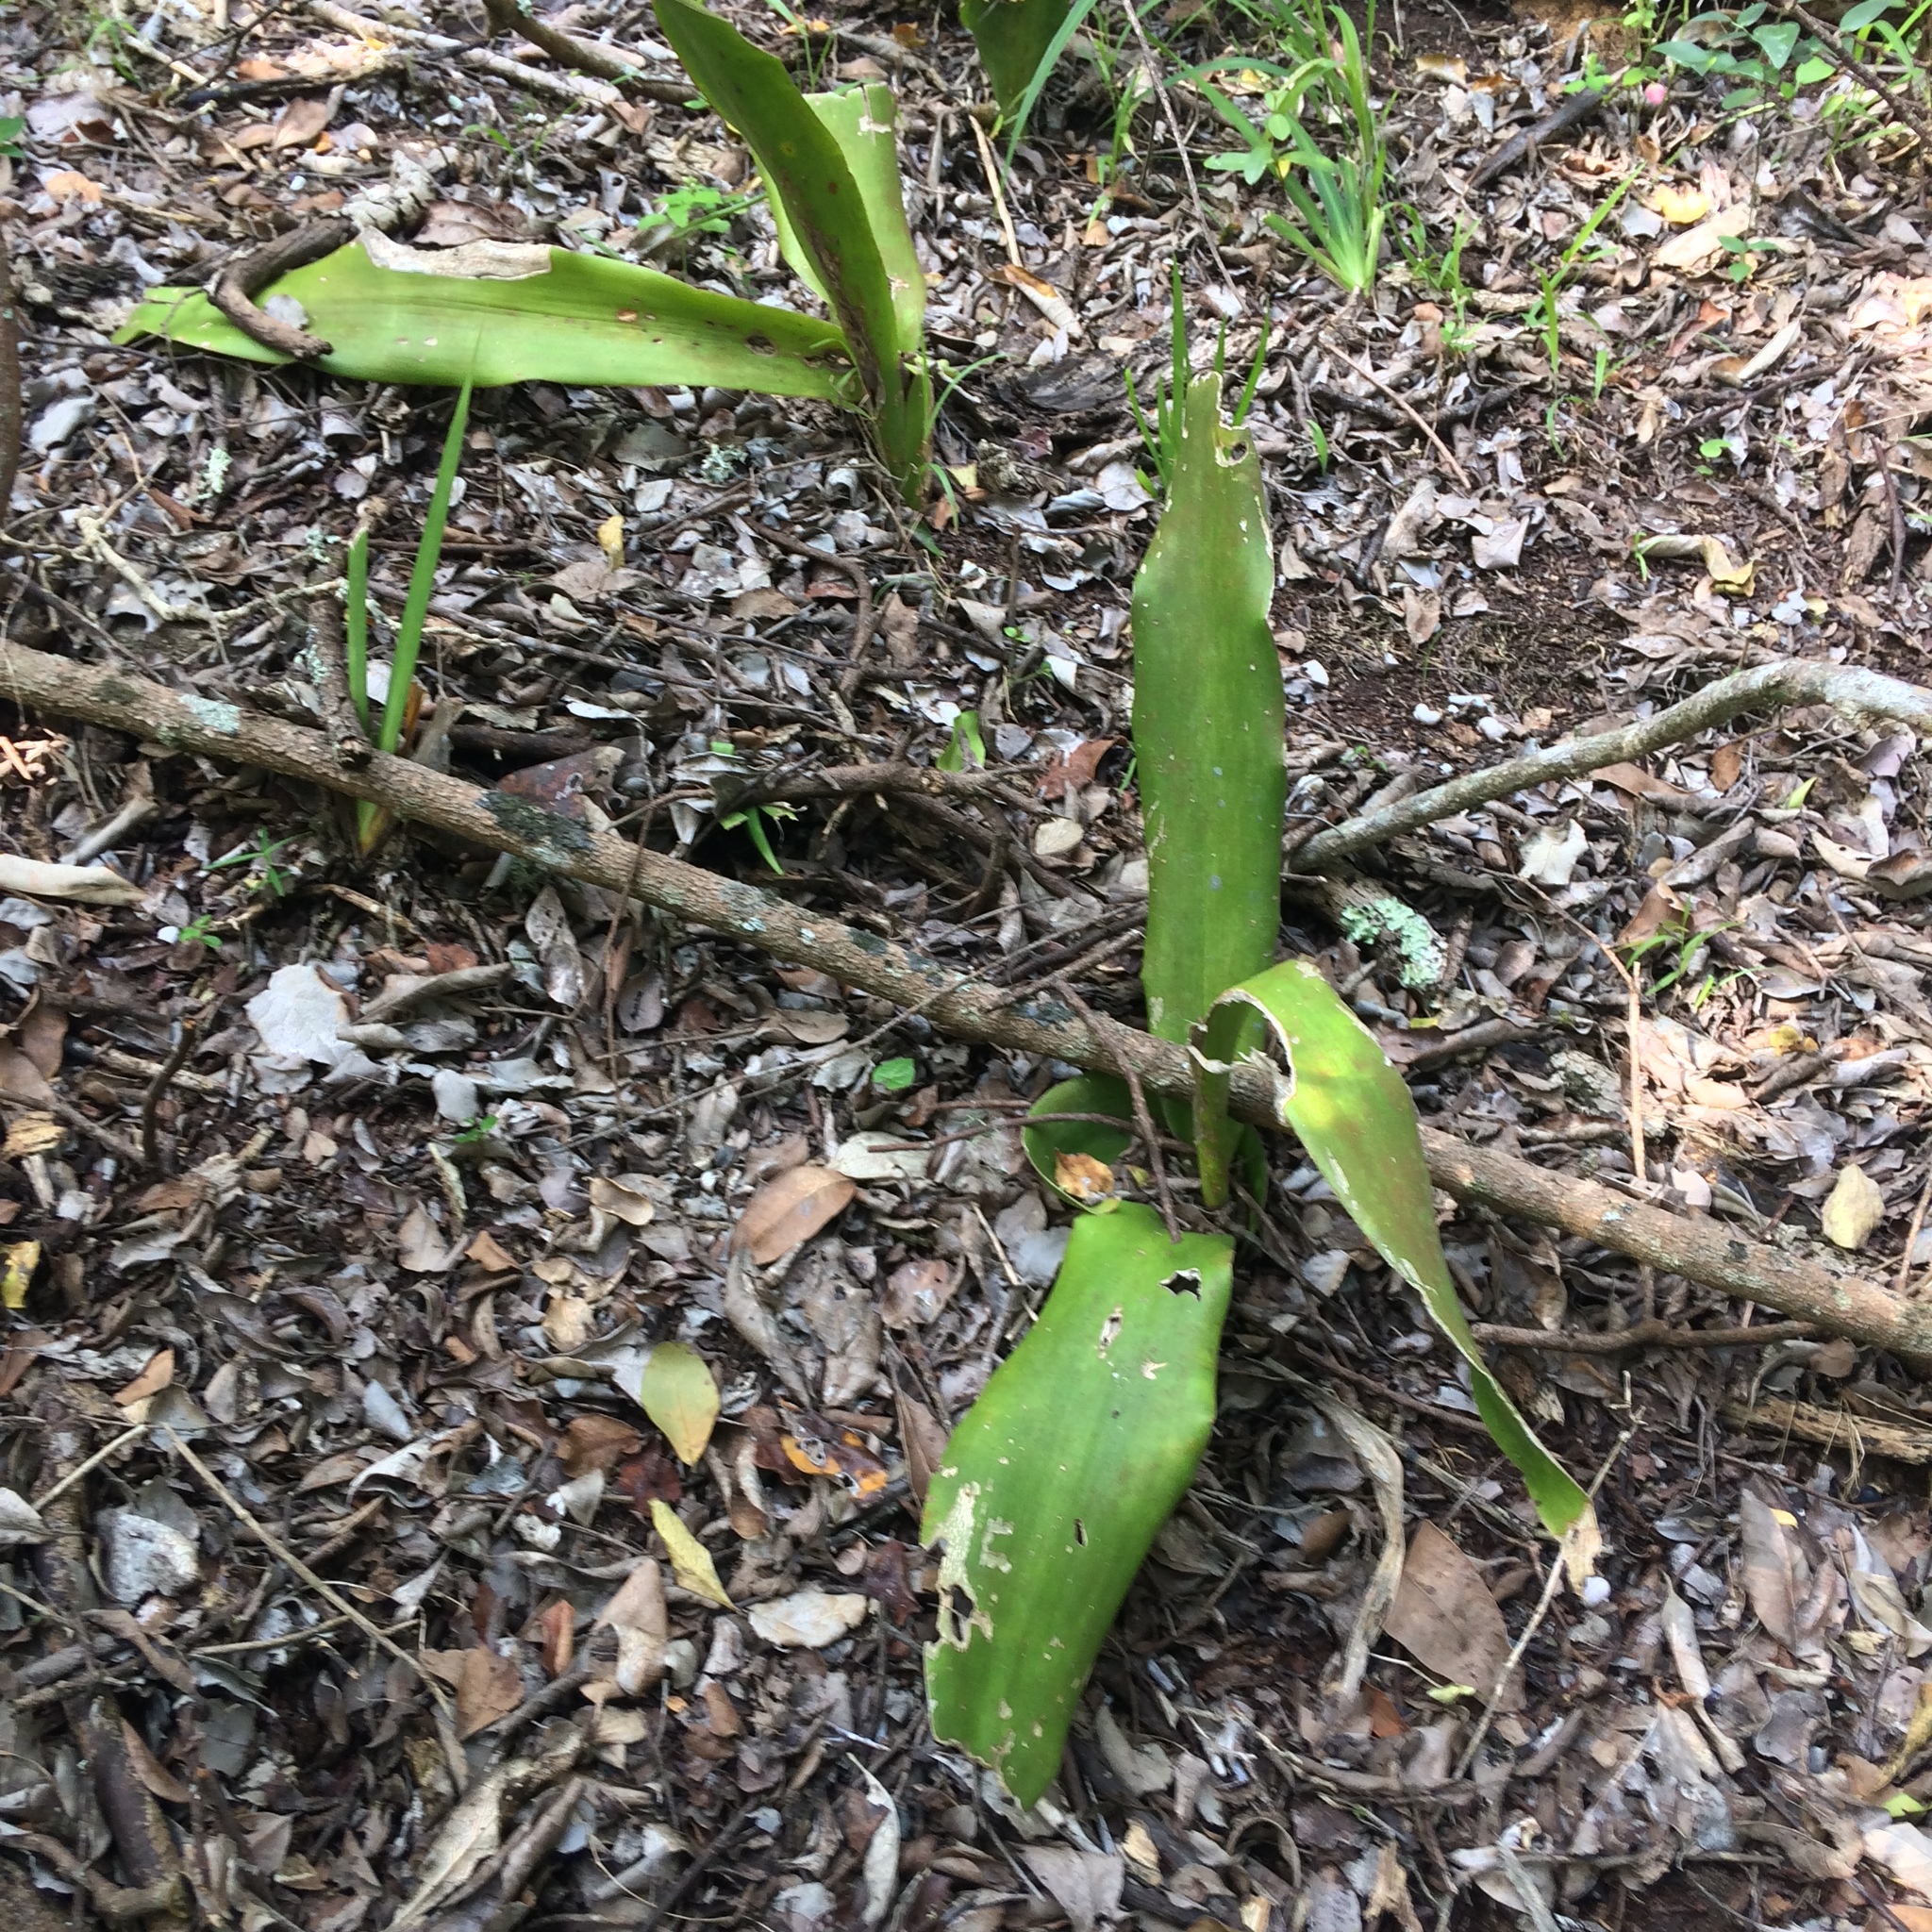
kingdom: Plantae
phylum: Tracheophyta
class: Liliopsida
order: Asparagales
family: Asparagaceae
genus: Dracaena
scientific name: Dracaena aletriformis
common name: Large-leaved dragon tree
